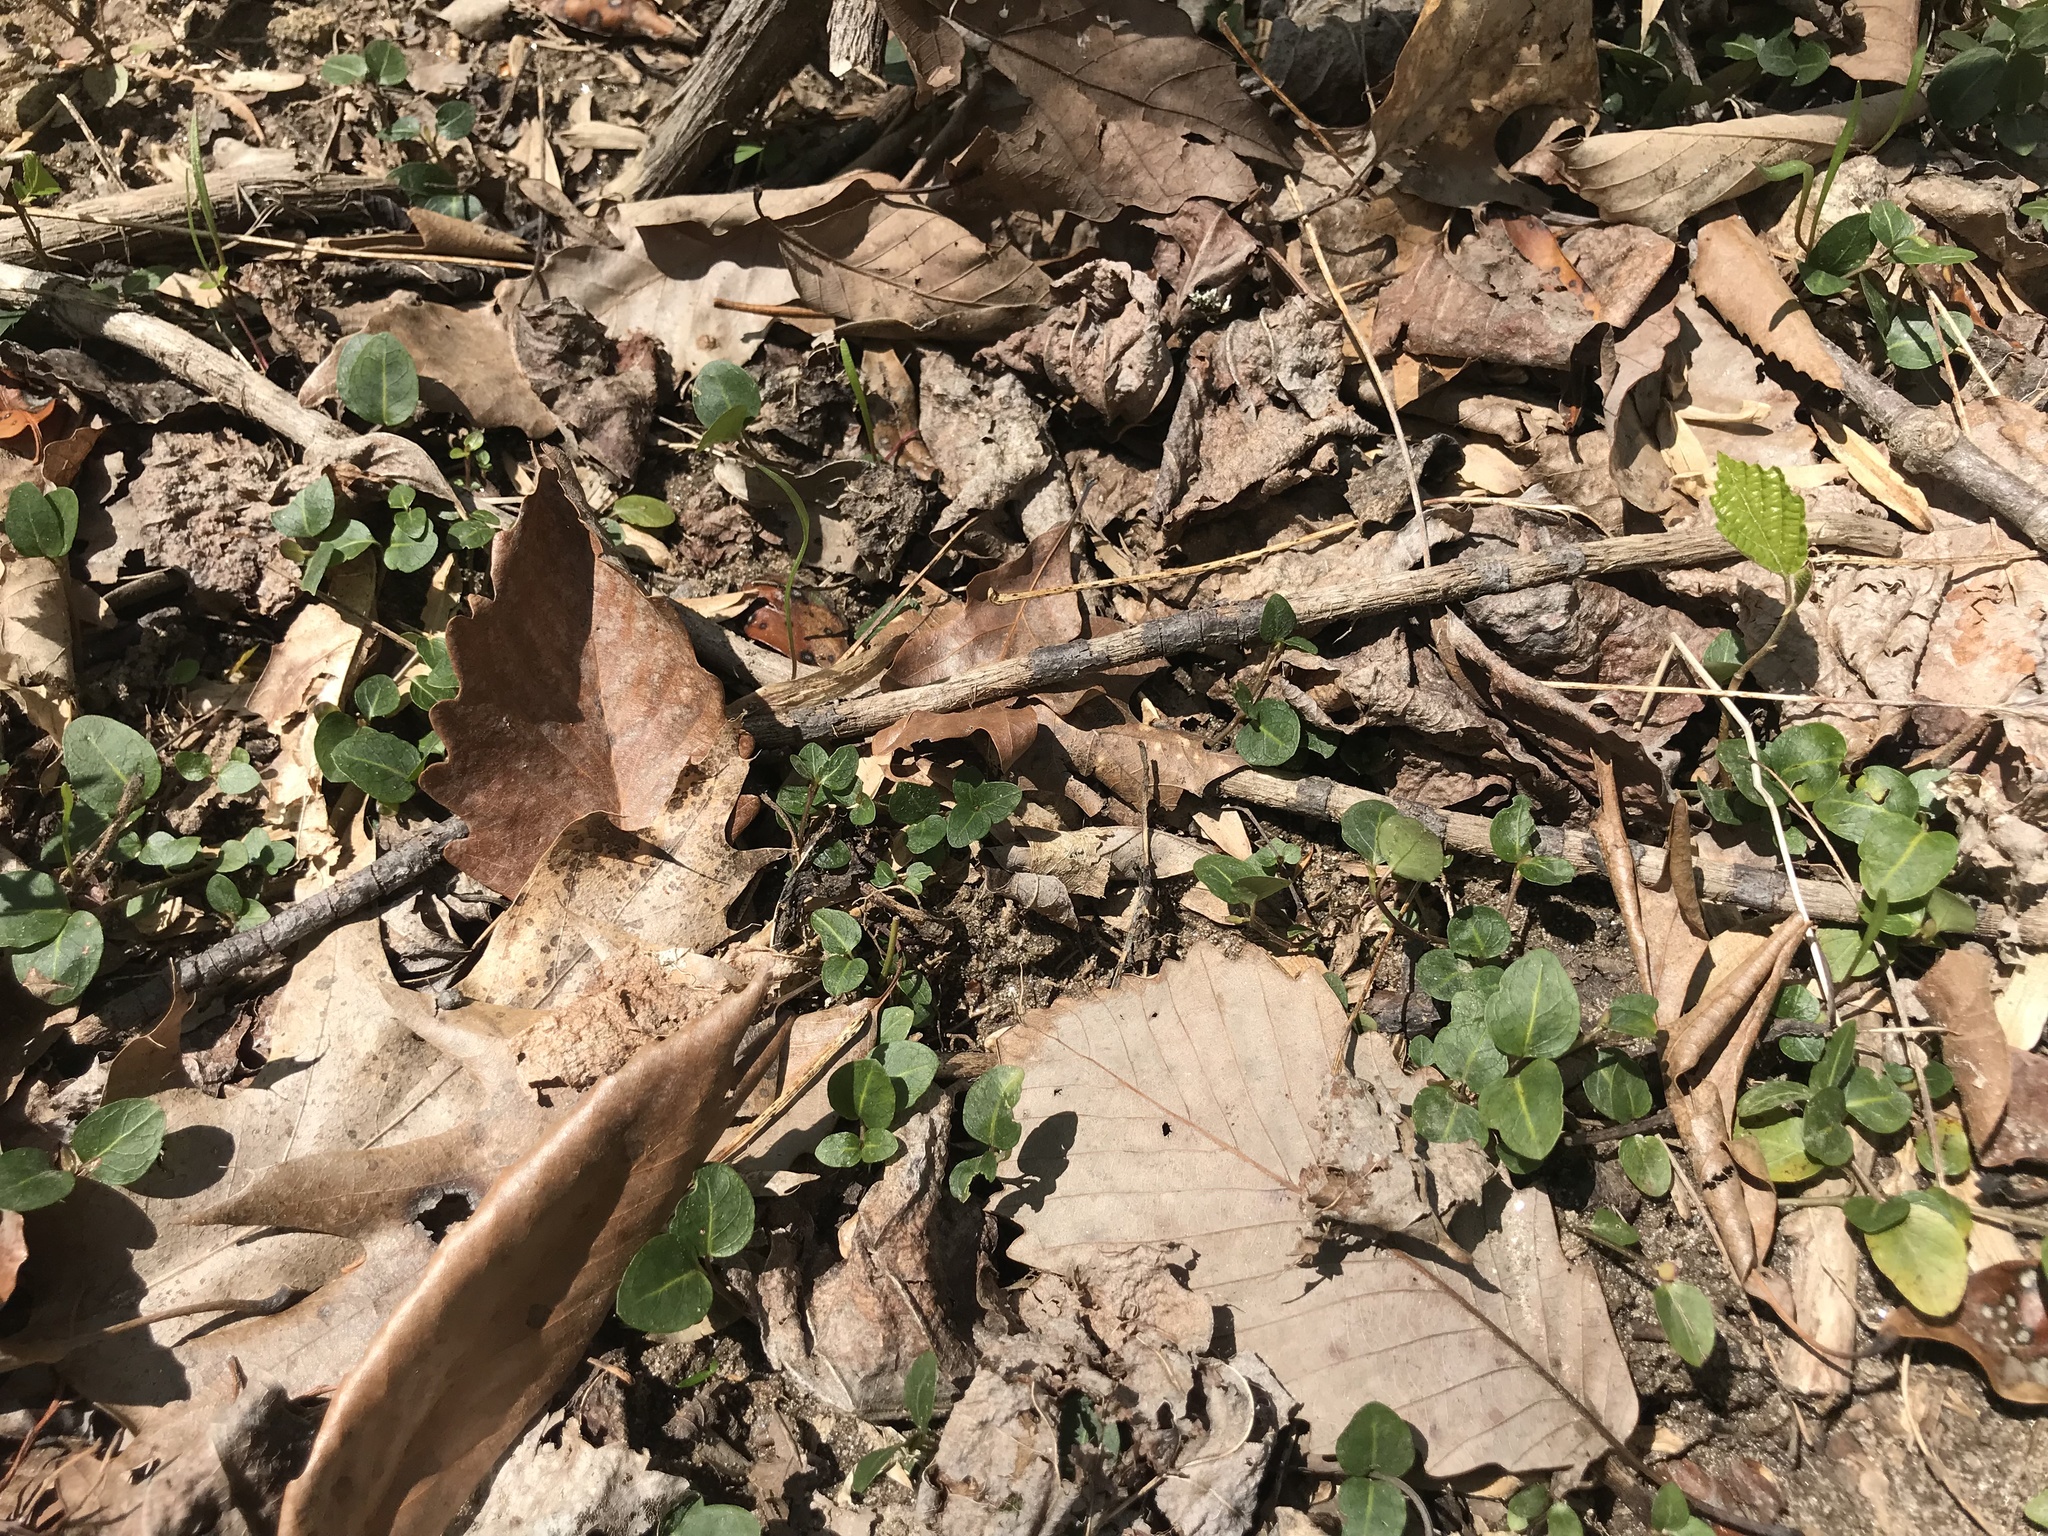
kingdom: Plantae
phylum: Tracheophyta
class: Magnoliopsida
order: Gentianales
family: Rubiaceae
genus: Mitchella
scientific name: Mitchella repens
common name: Partridge-berry
